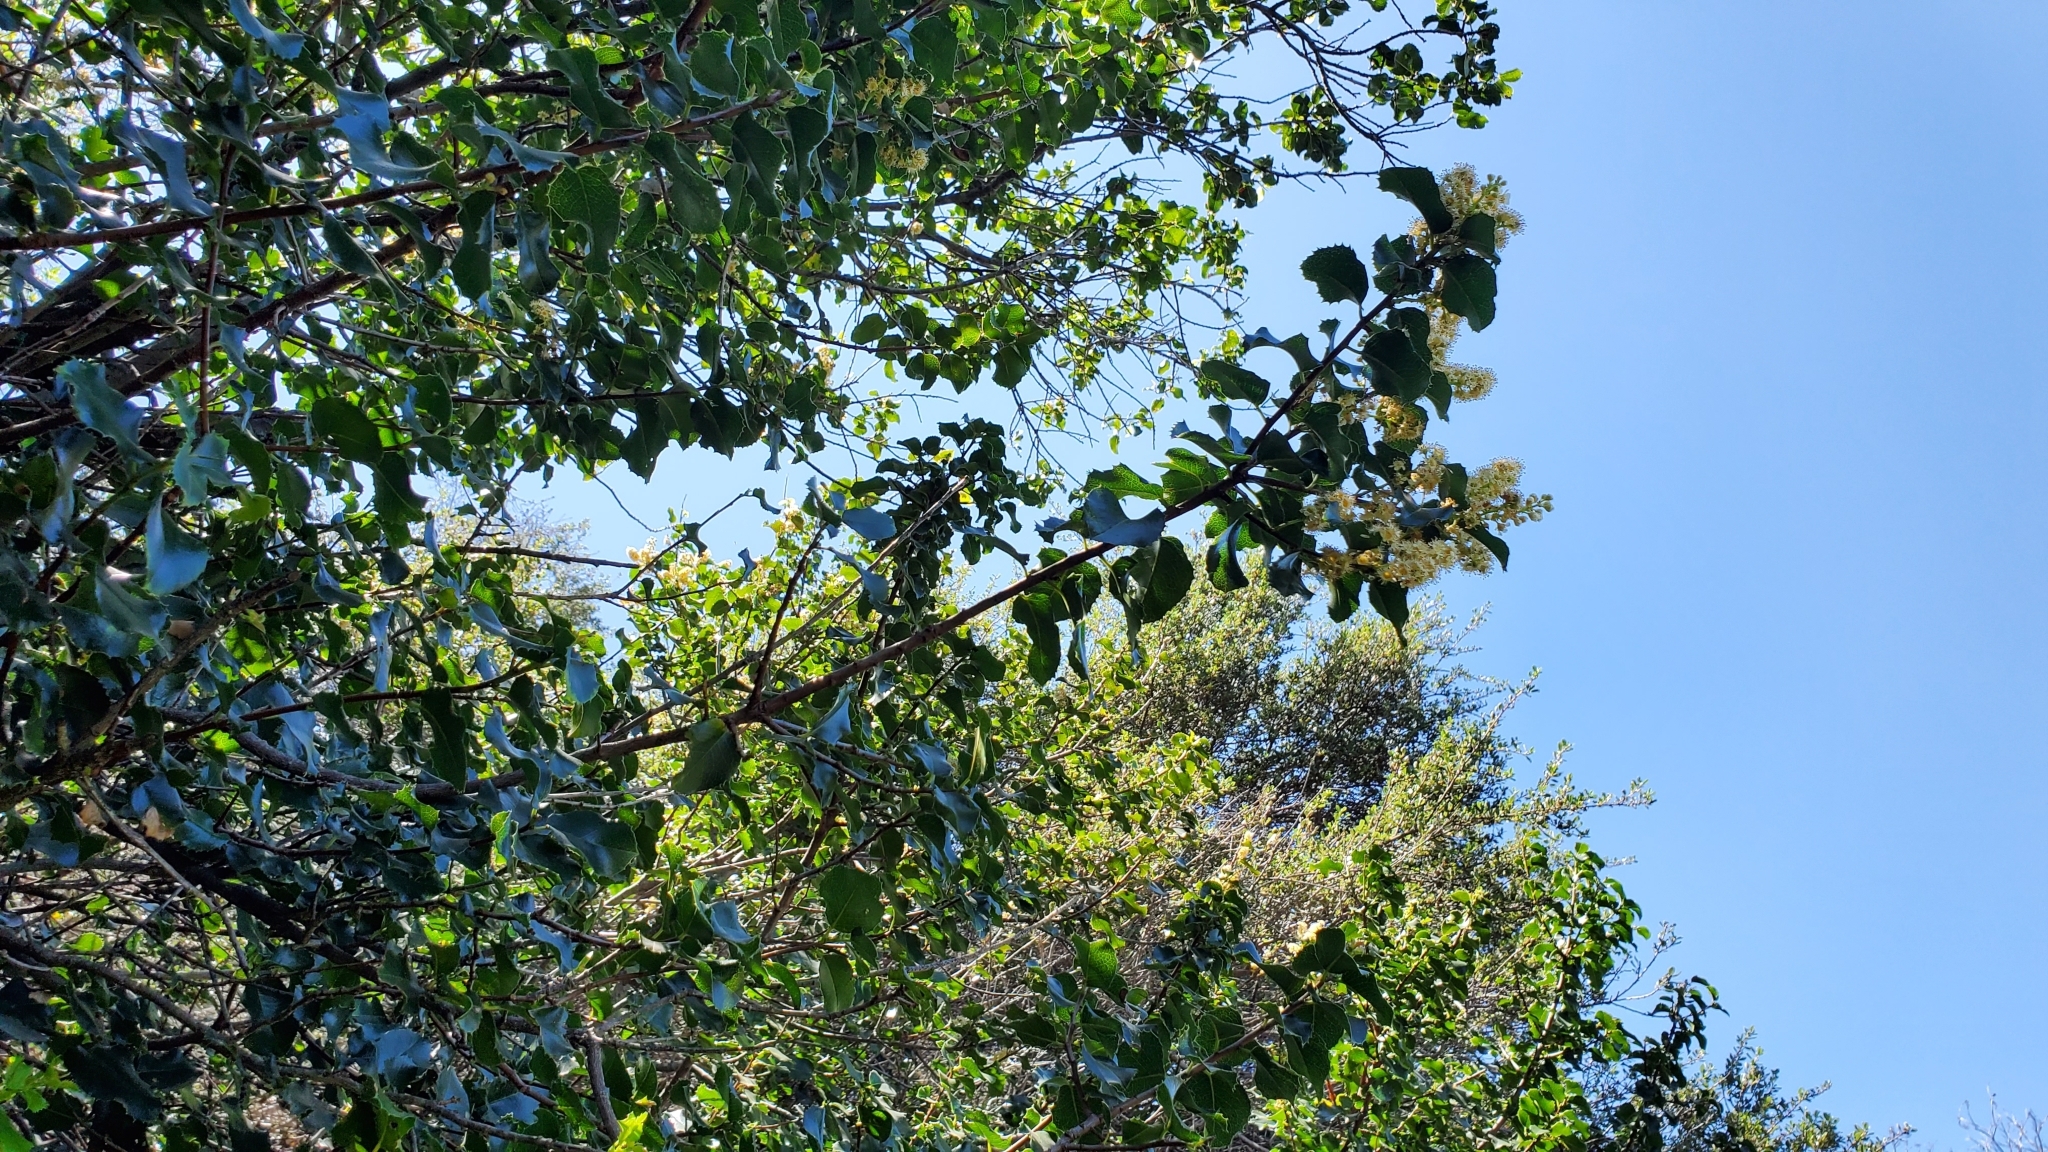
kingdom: Plantae
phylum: Tracheophyta
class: Magnoliopsida
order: Rosales
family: Rosaceae
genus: Prunus
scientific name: Prunus ilicifolia
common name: Hollyleaf cherry
